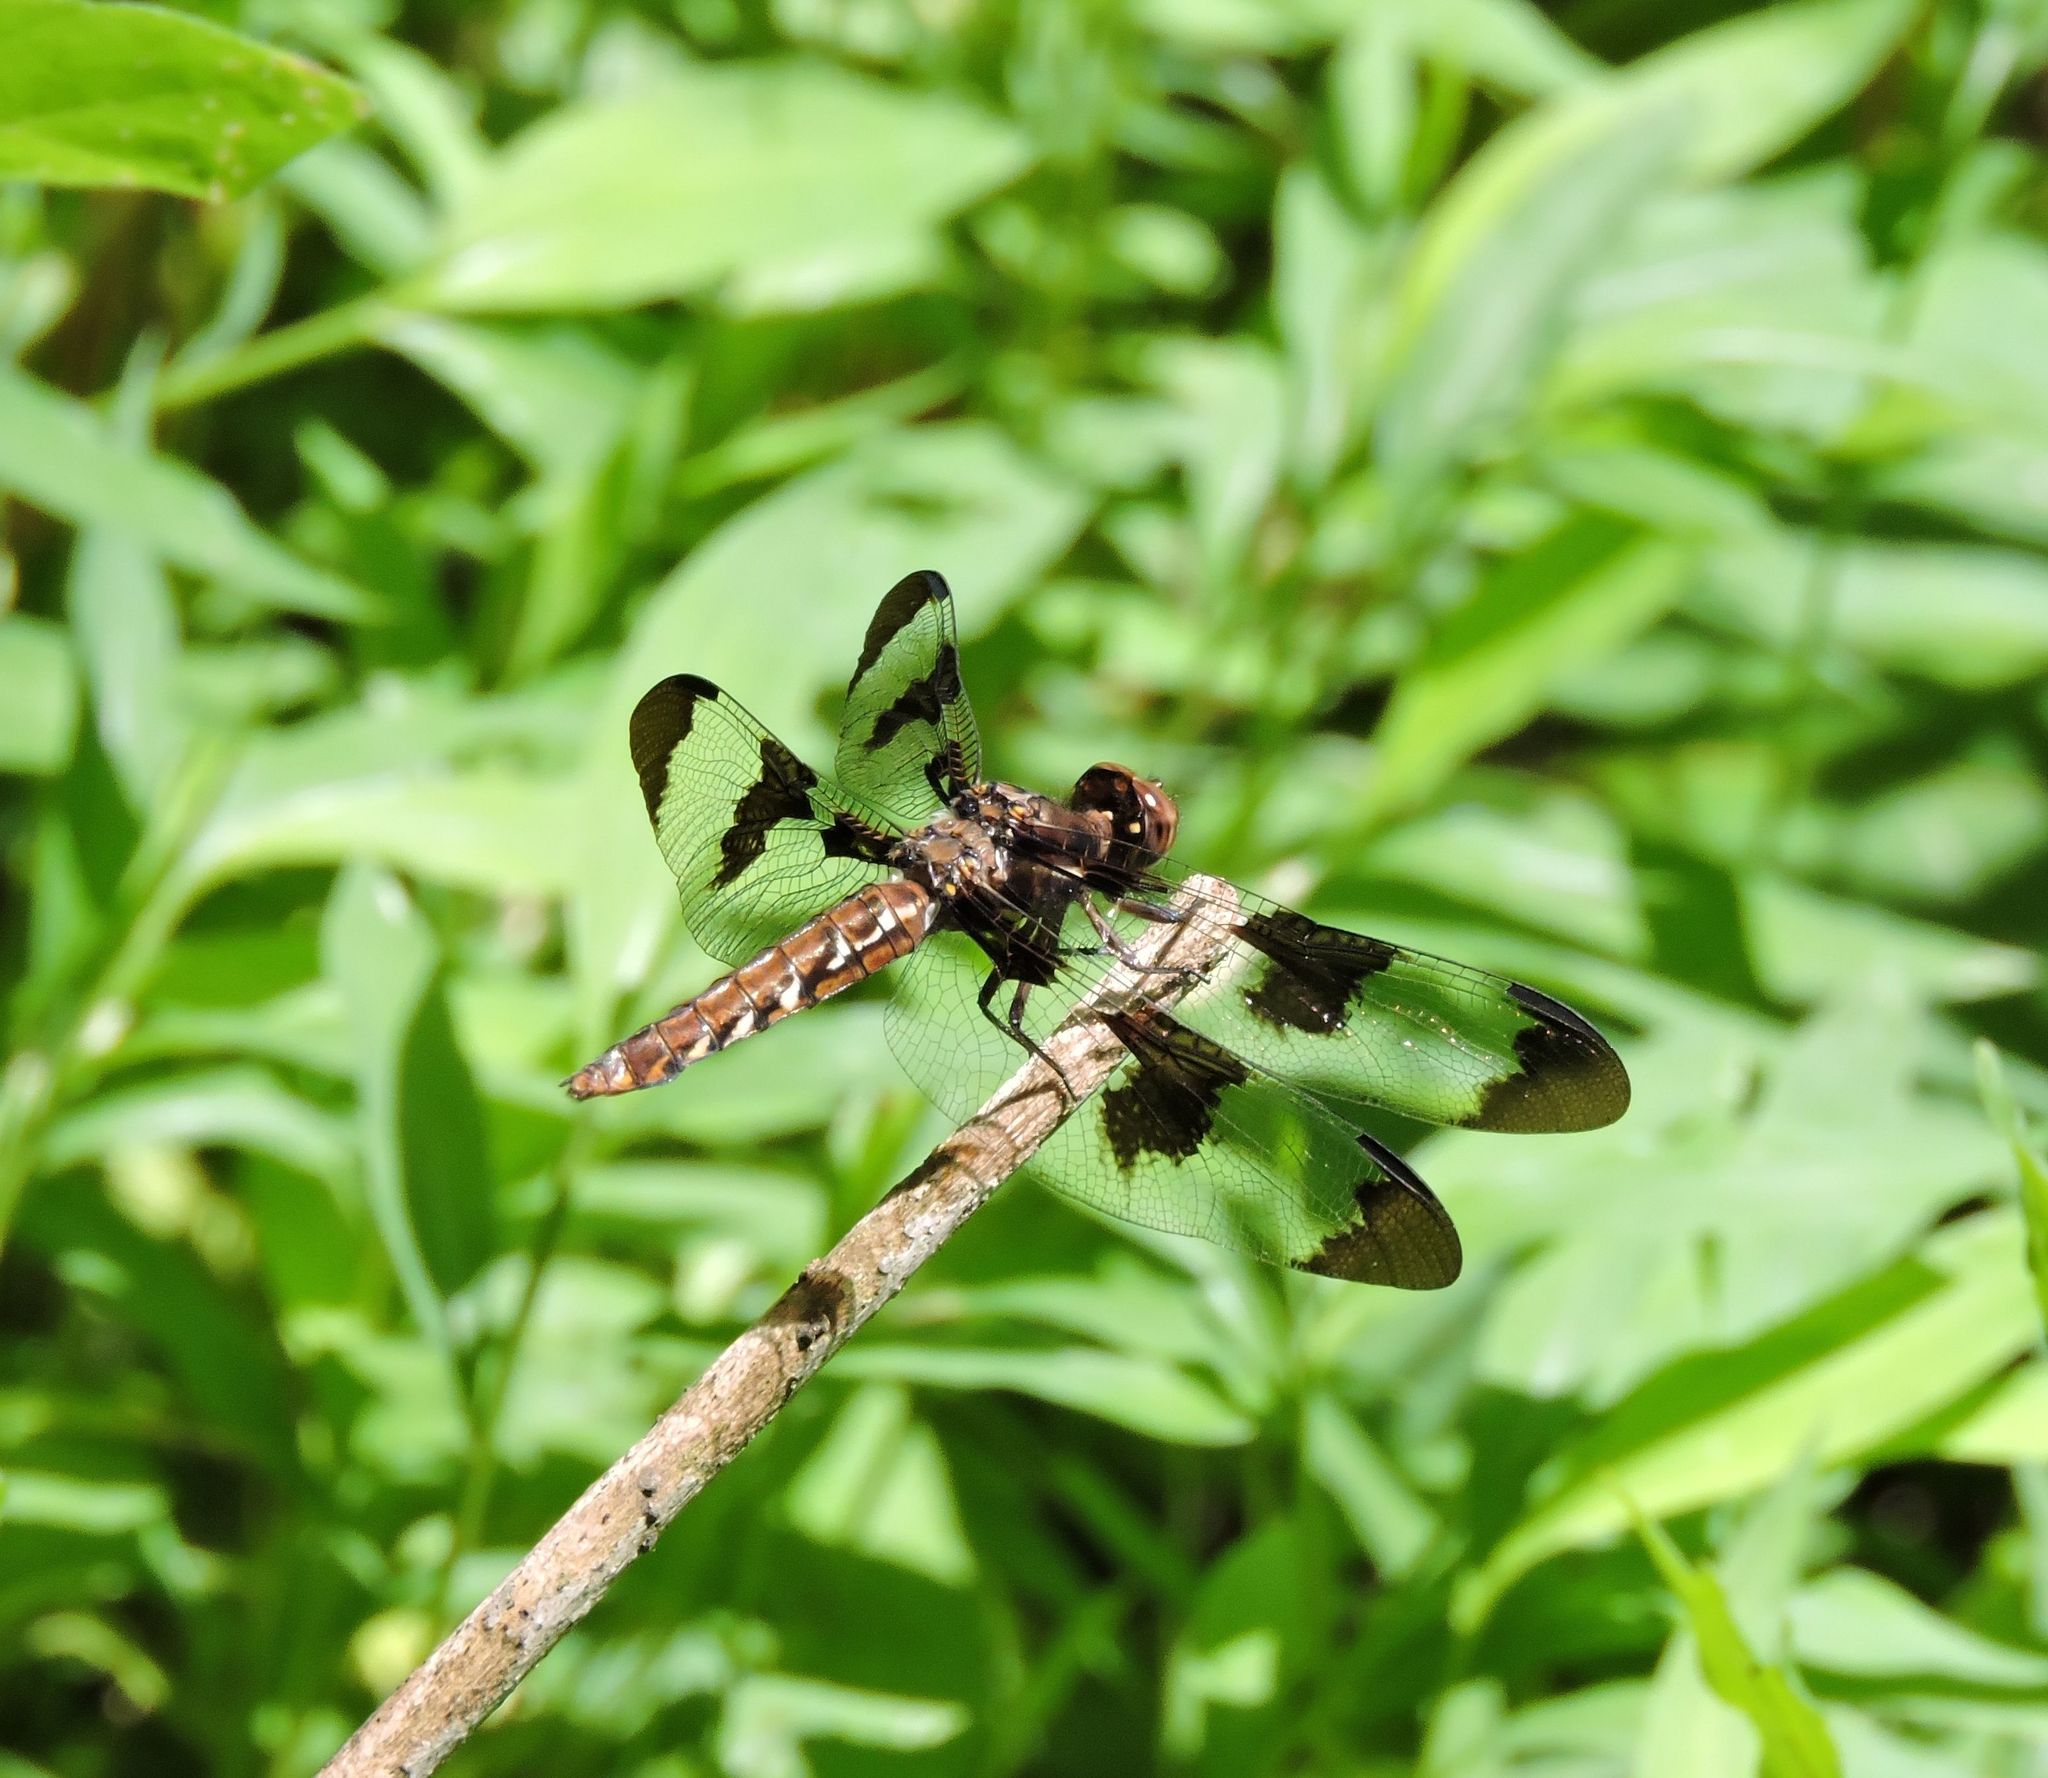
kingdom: Animalia
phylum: Arthropoda
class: Insecta
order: Odonata
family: Libellulidae
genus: Plathemis
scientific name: Plathemis lydia
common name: Common whitetail
